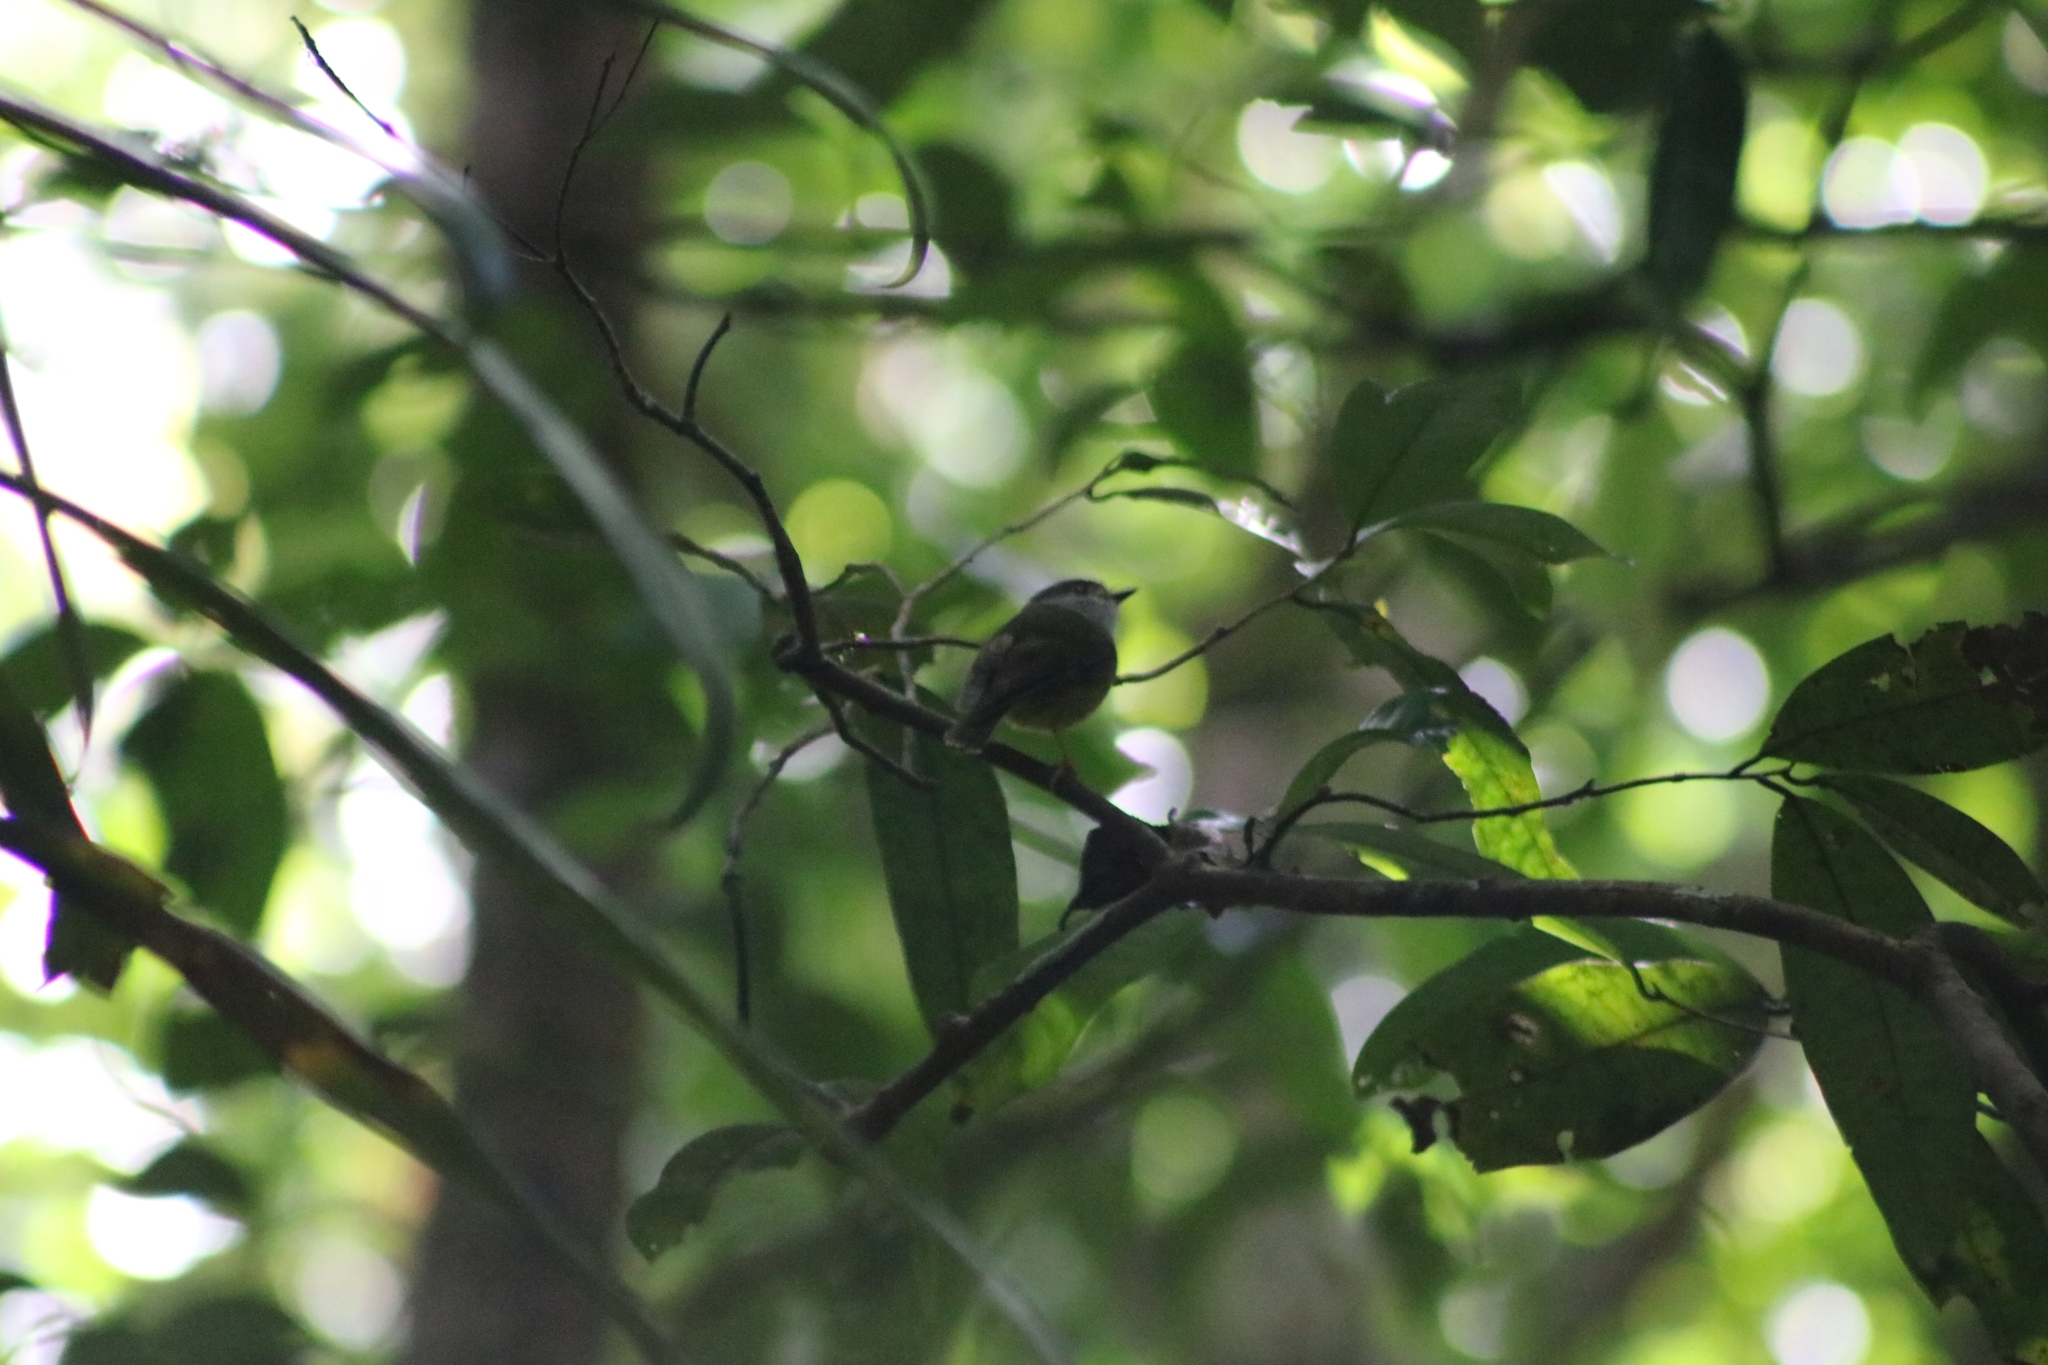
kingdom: Animalia
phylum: Chordata
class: Aves
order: Passeriformes
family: Petroicidae
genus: Eopsaltria
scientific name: Eopsaltria
